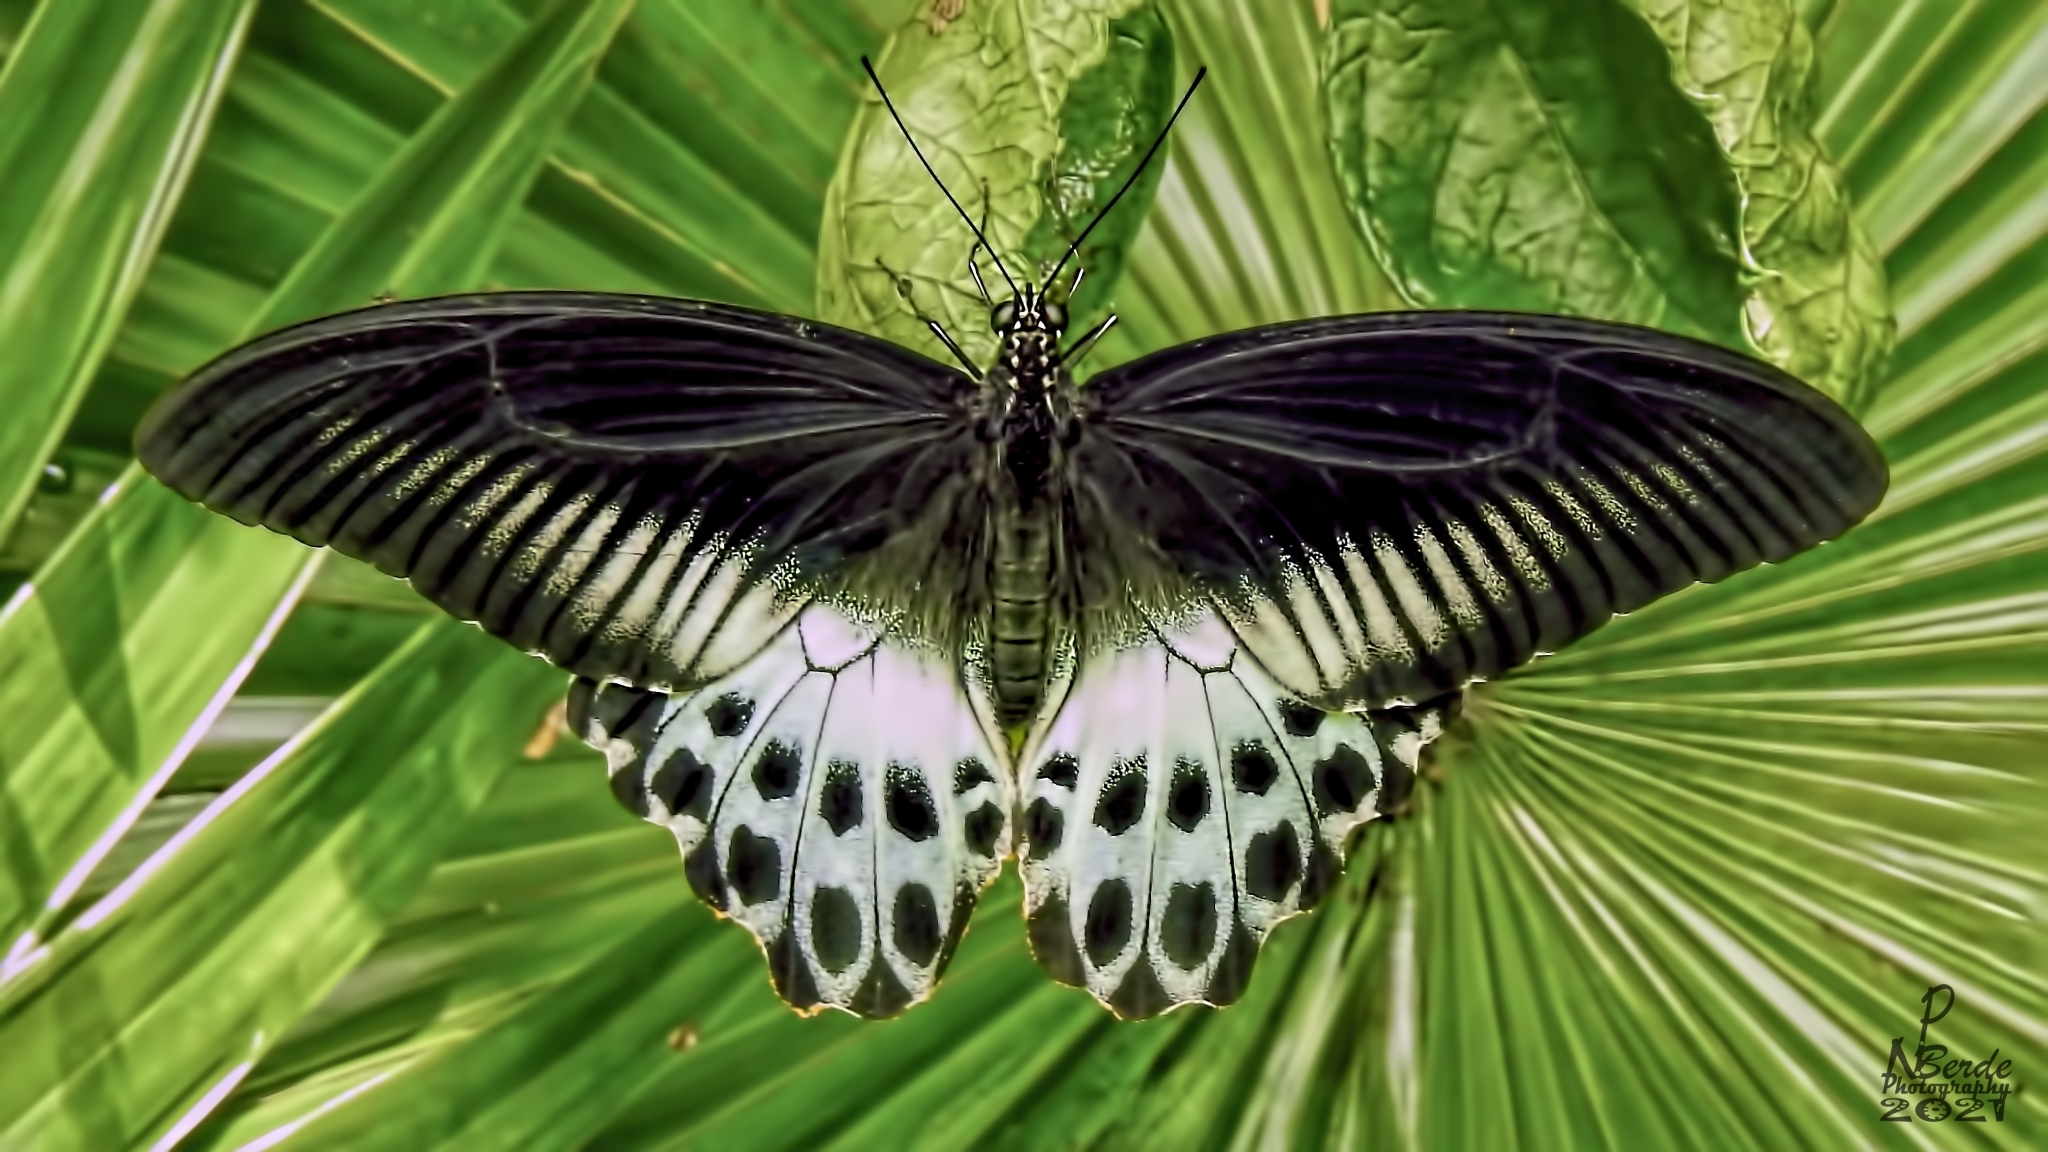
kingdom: Animalia
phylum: Arthropoda
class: Insecta
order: Lepidoptera
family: Papilionidae
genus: Papilio
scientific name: Papilio memnon
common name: Great mormon
